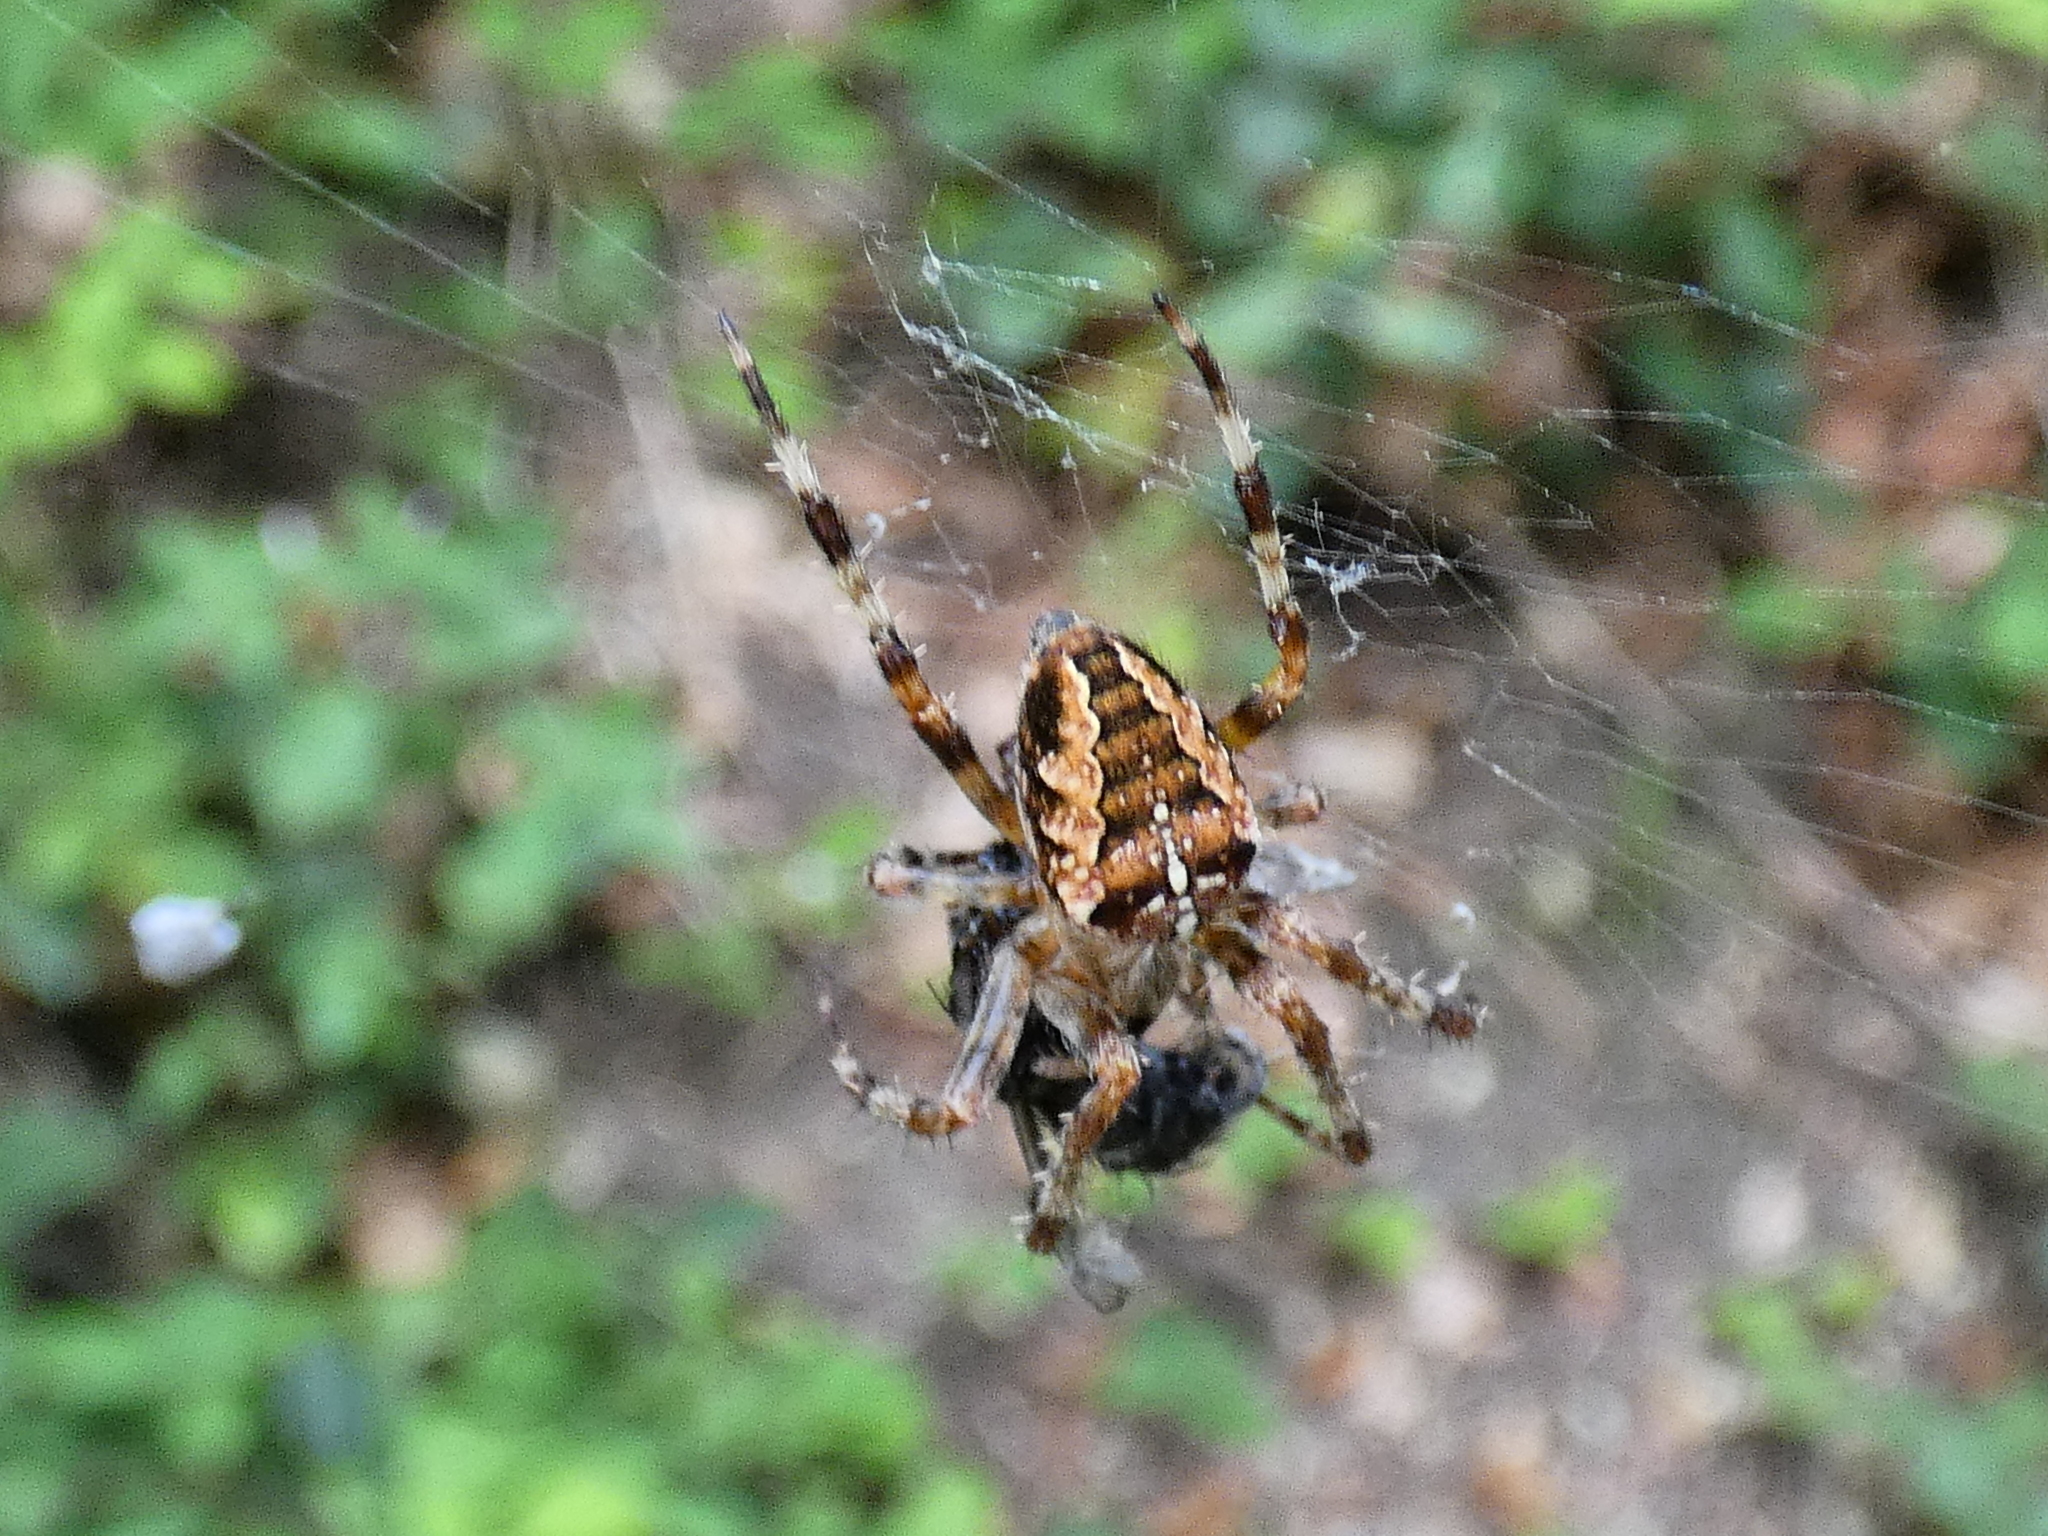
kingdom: Animalia
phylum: Arthropoda
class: Arachnida
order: Araneae
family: Araneidae
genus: Araneus
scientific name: Araneus diadematus
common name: Cross orbweaver
